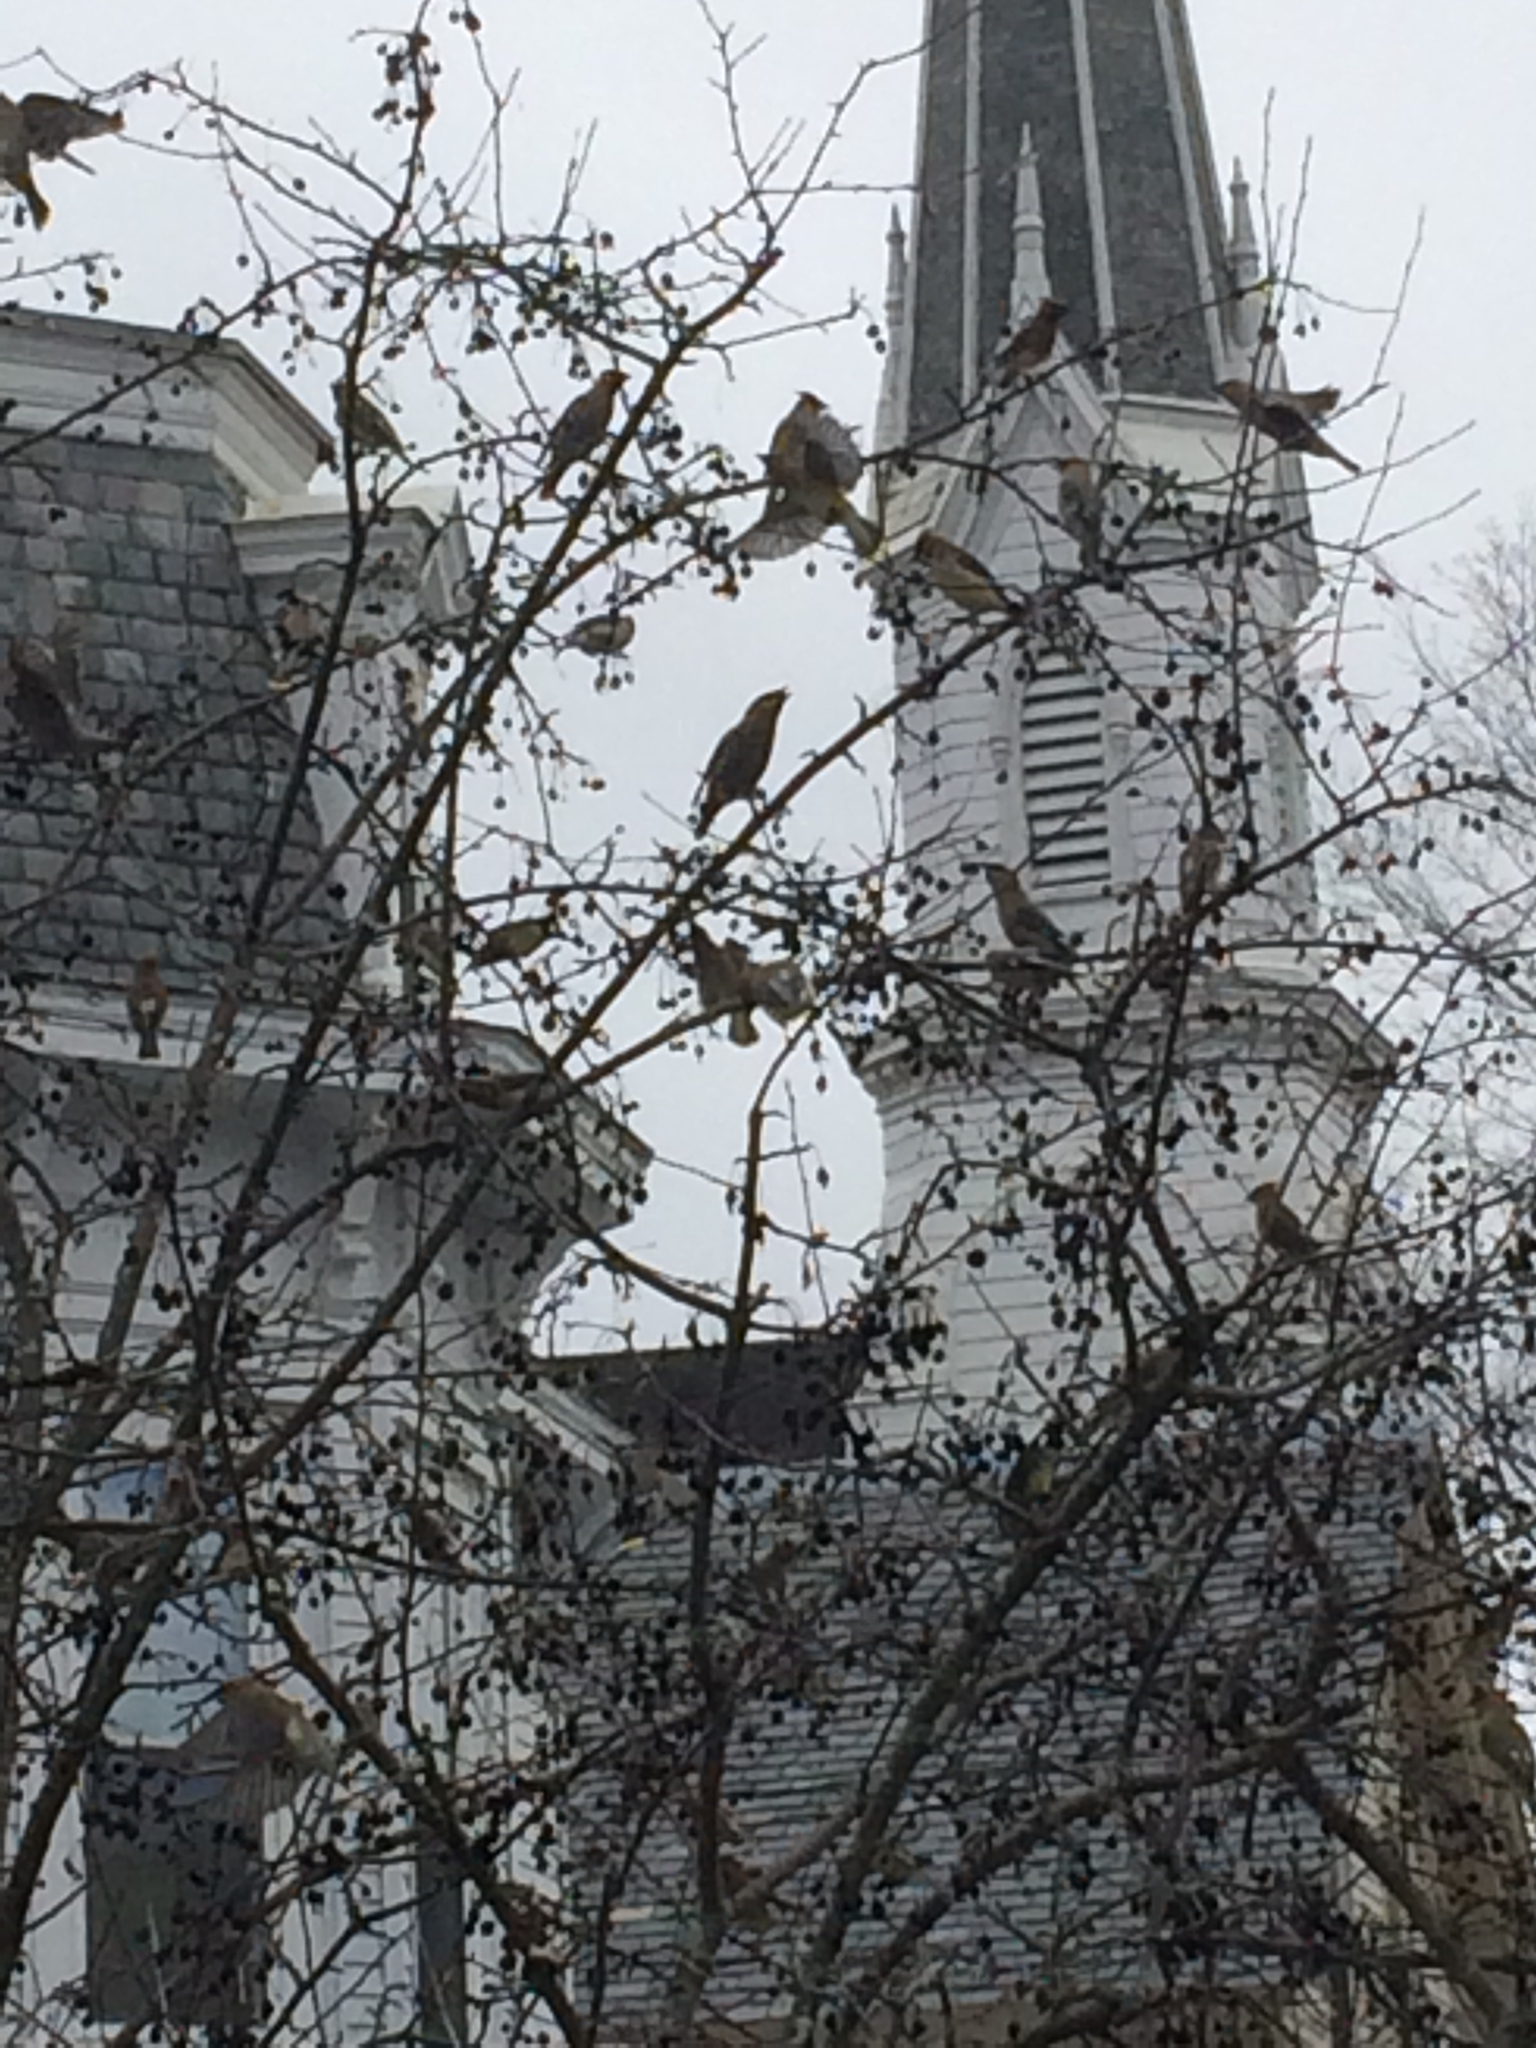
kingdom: Animalia
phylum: Chordata
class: Aves
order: Passeriformes
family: Bombycillidae
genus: Bombycilla
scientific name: Bombycilla cedrorum
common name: Cedar waxwing
